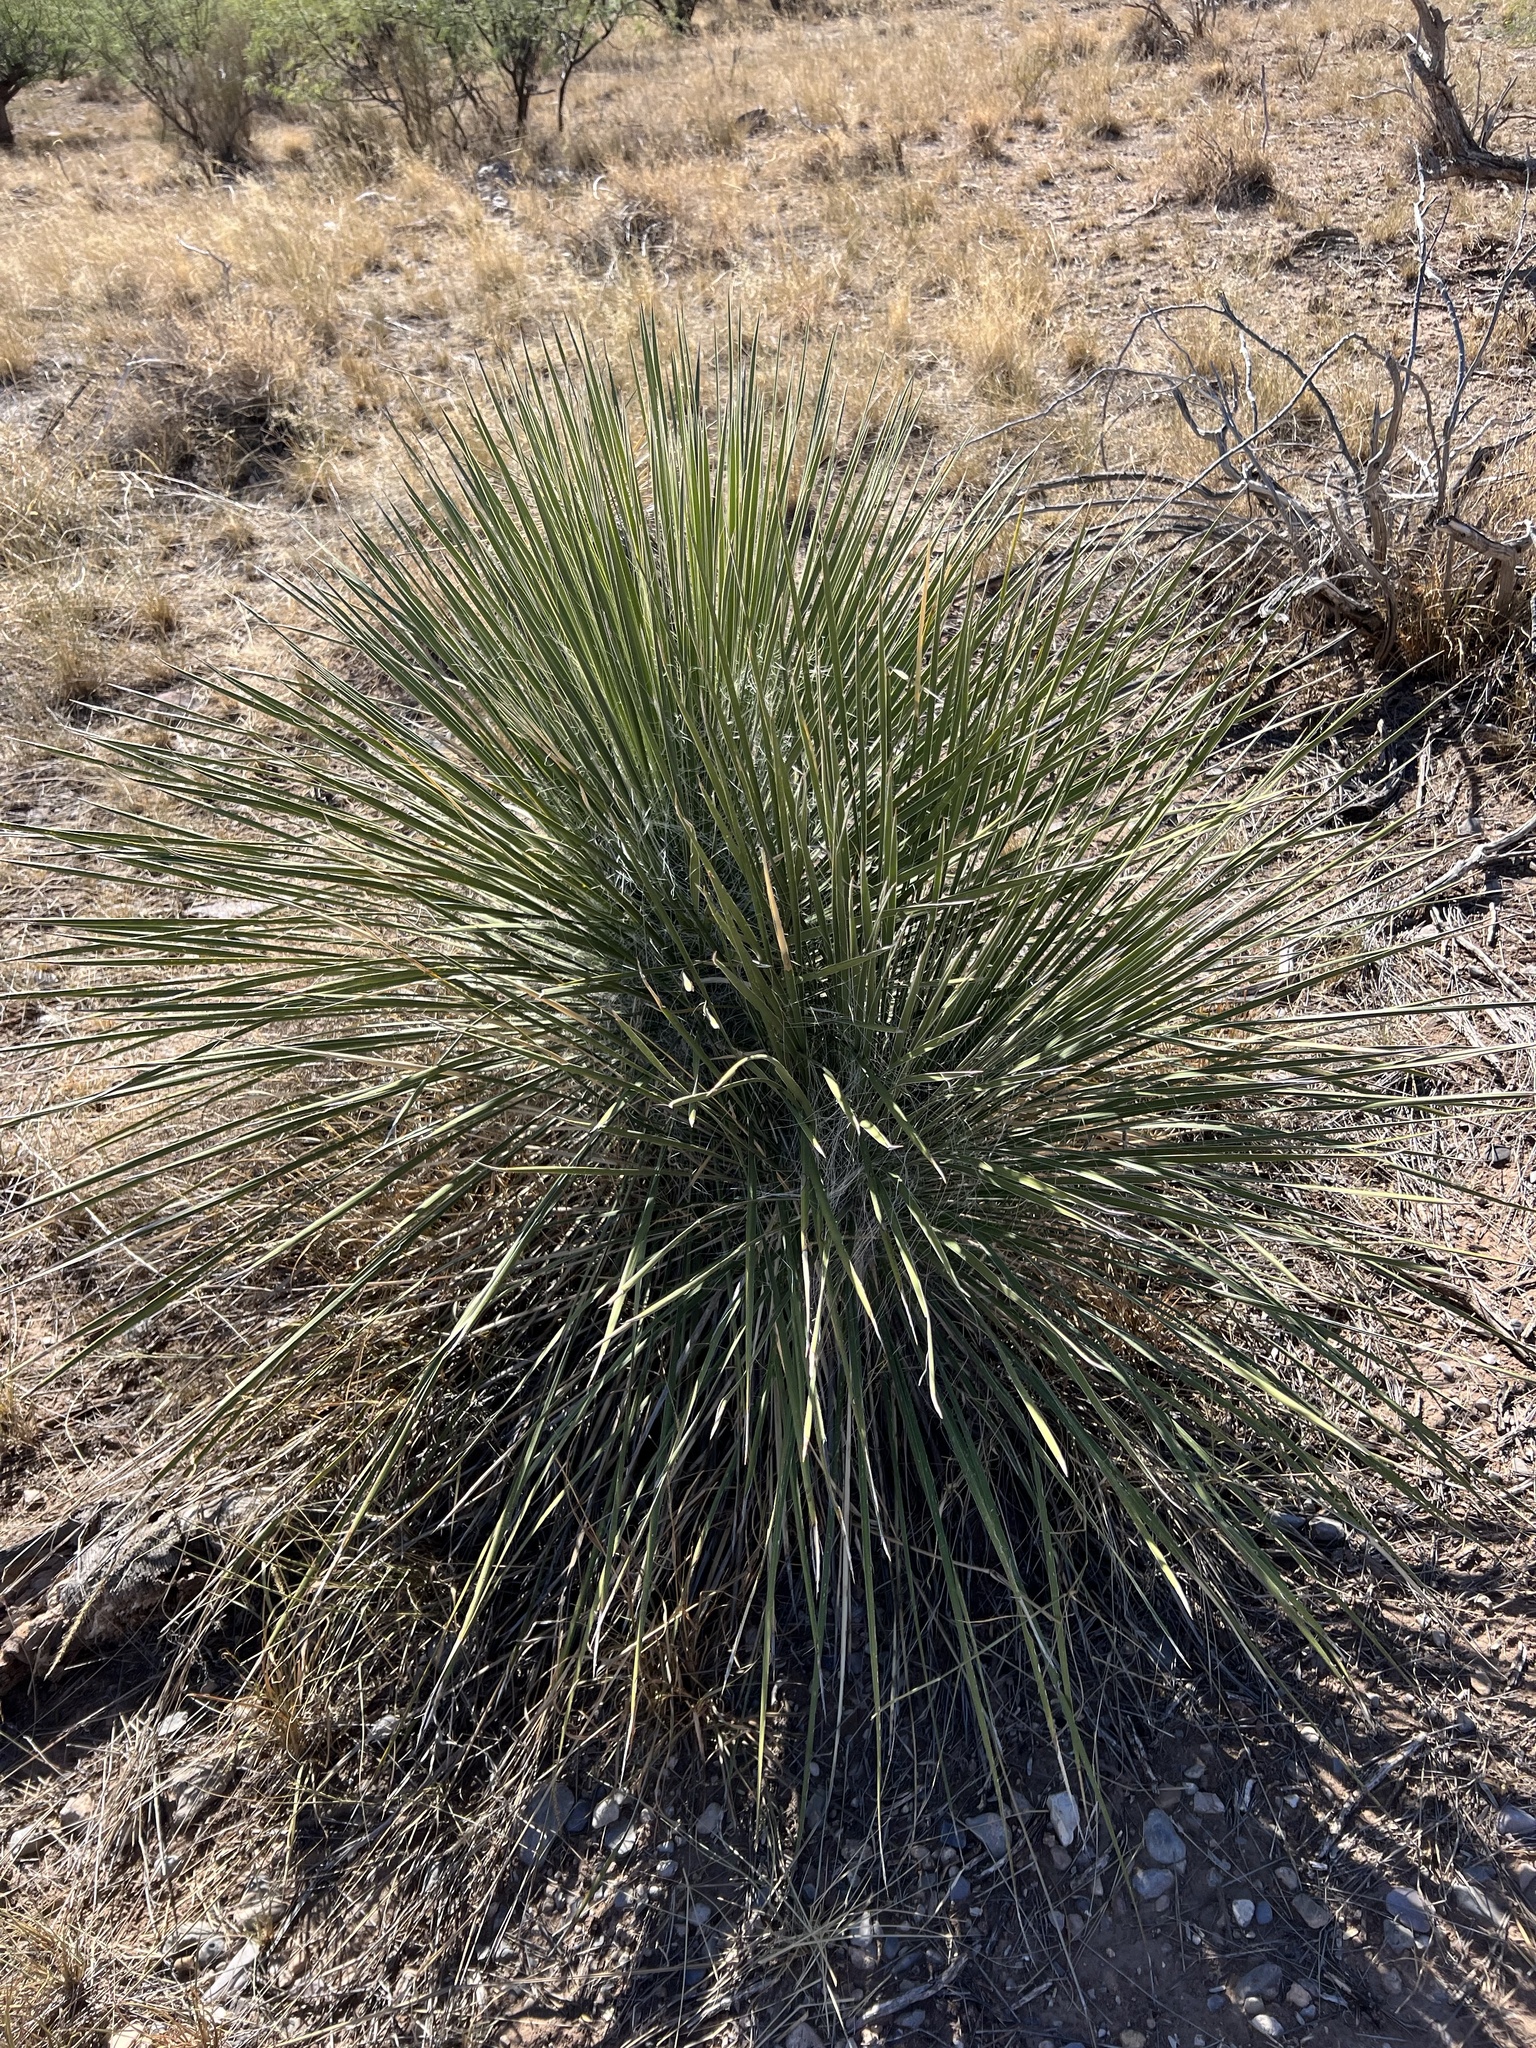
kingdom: Plantae
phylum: Tracheophyta
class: Liliopsida
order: Asparagales
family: Asparagaceae
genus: Yucca
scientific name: Yucca elata
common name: Palmella
